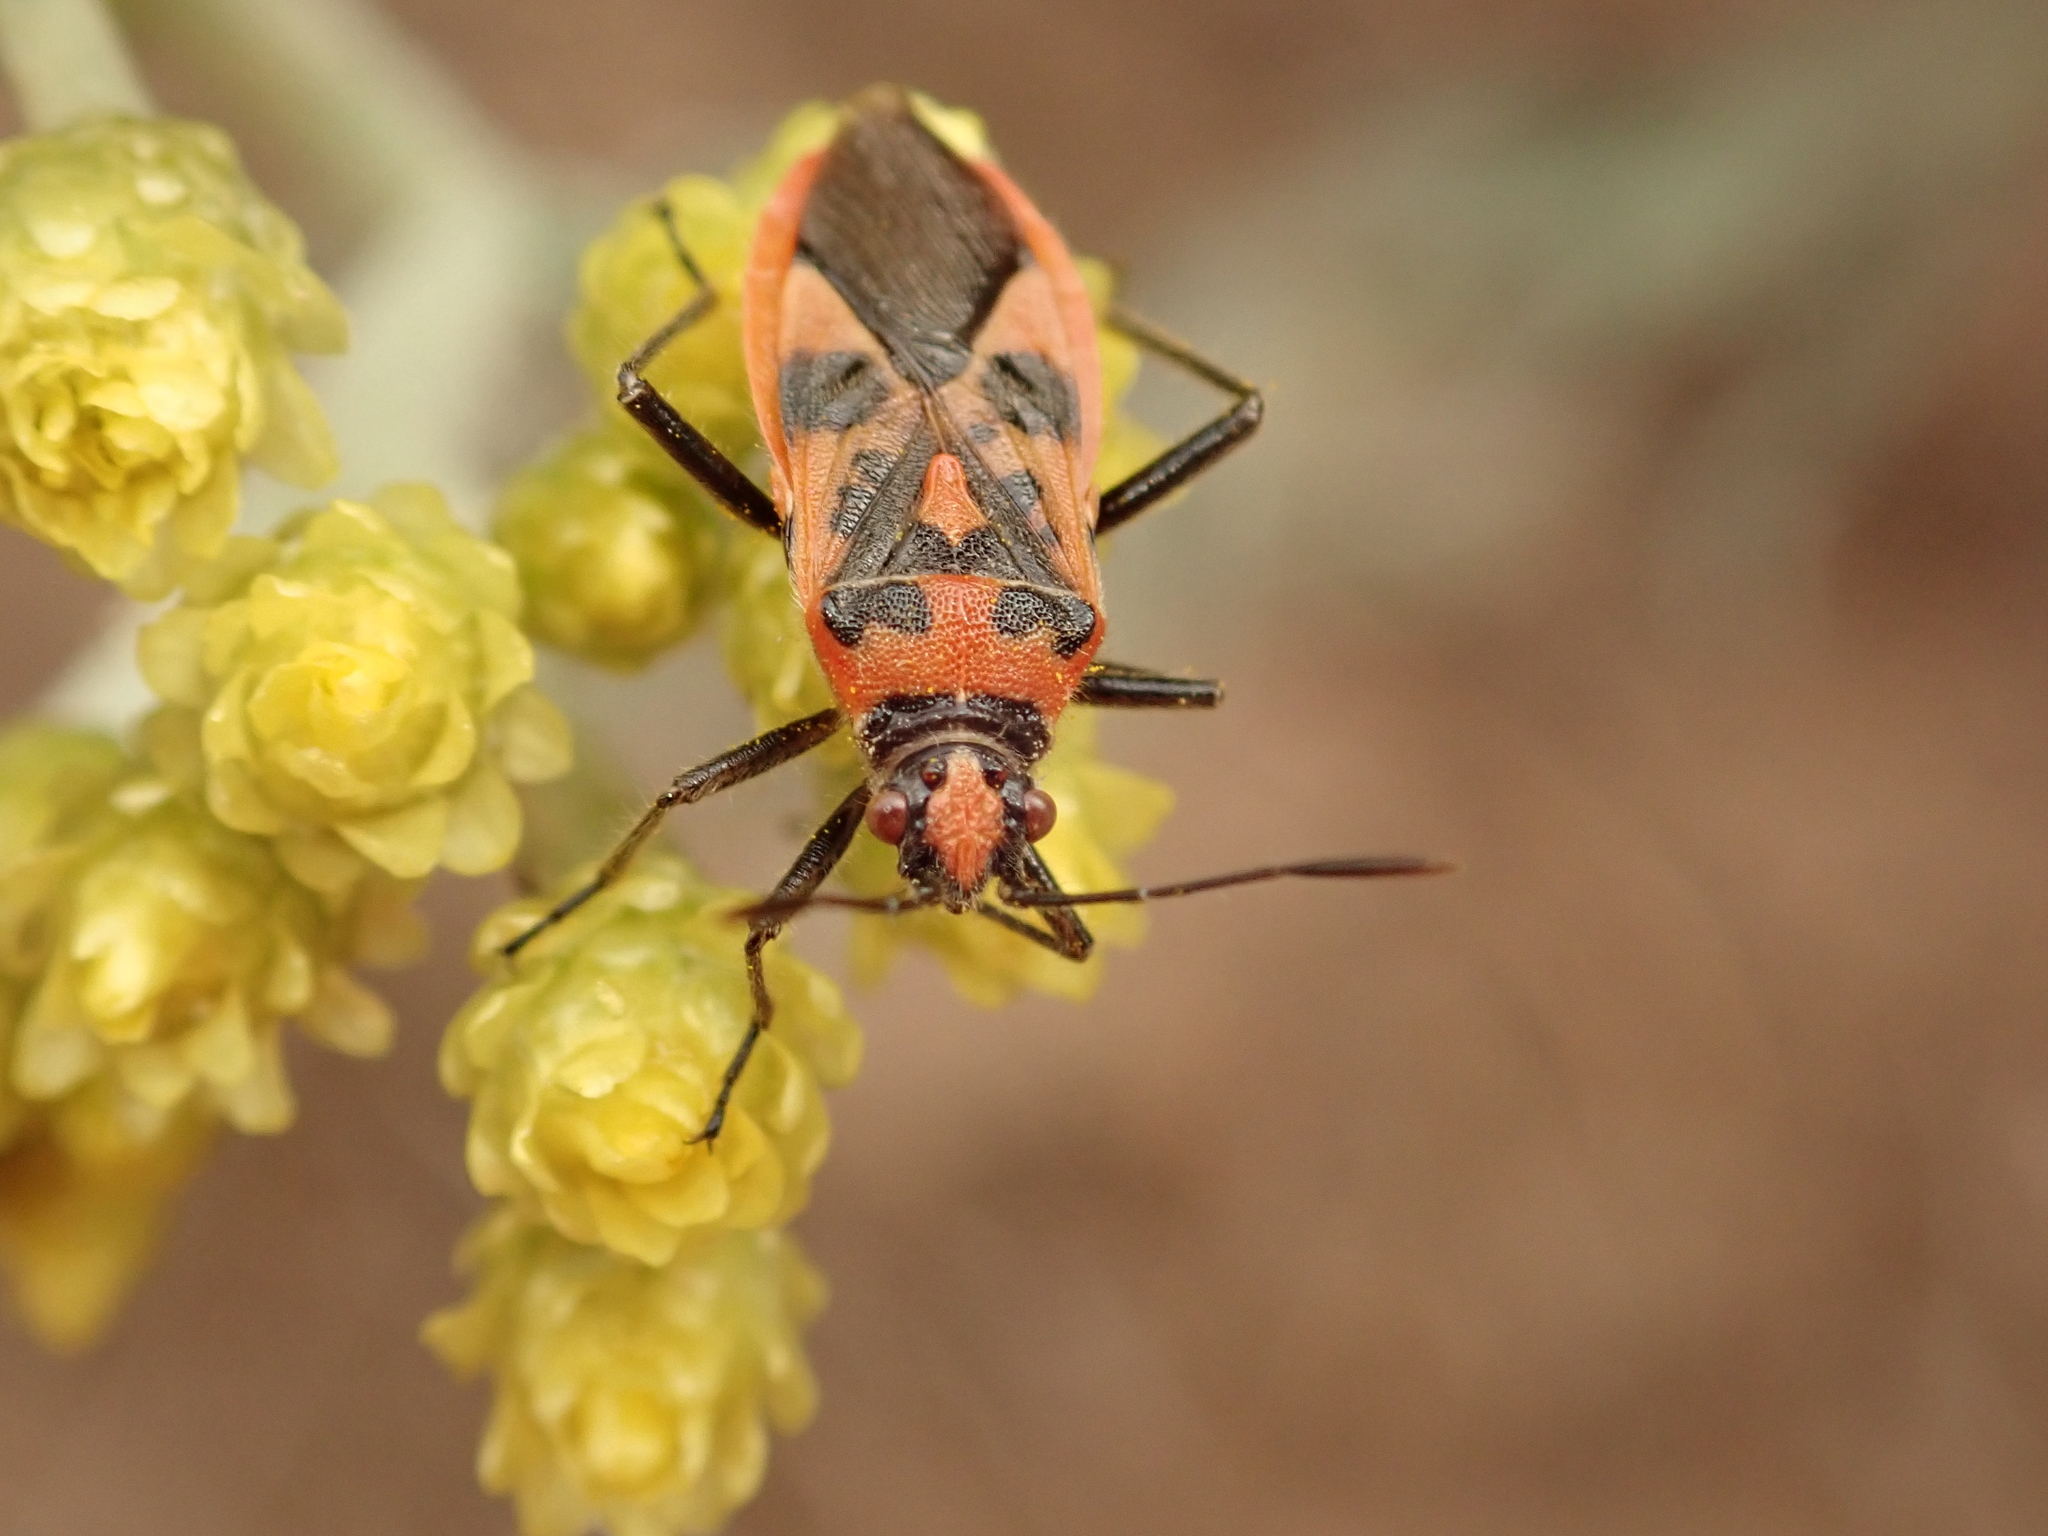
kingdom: Animalia
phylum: Arthropoda
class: Insecta
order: Hemiptera
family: Rhopalidae
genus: Corizus
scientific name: Corizus hyoscyami
